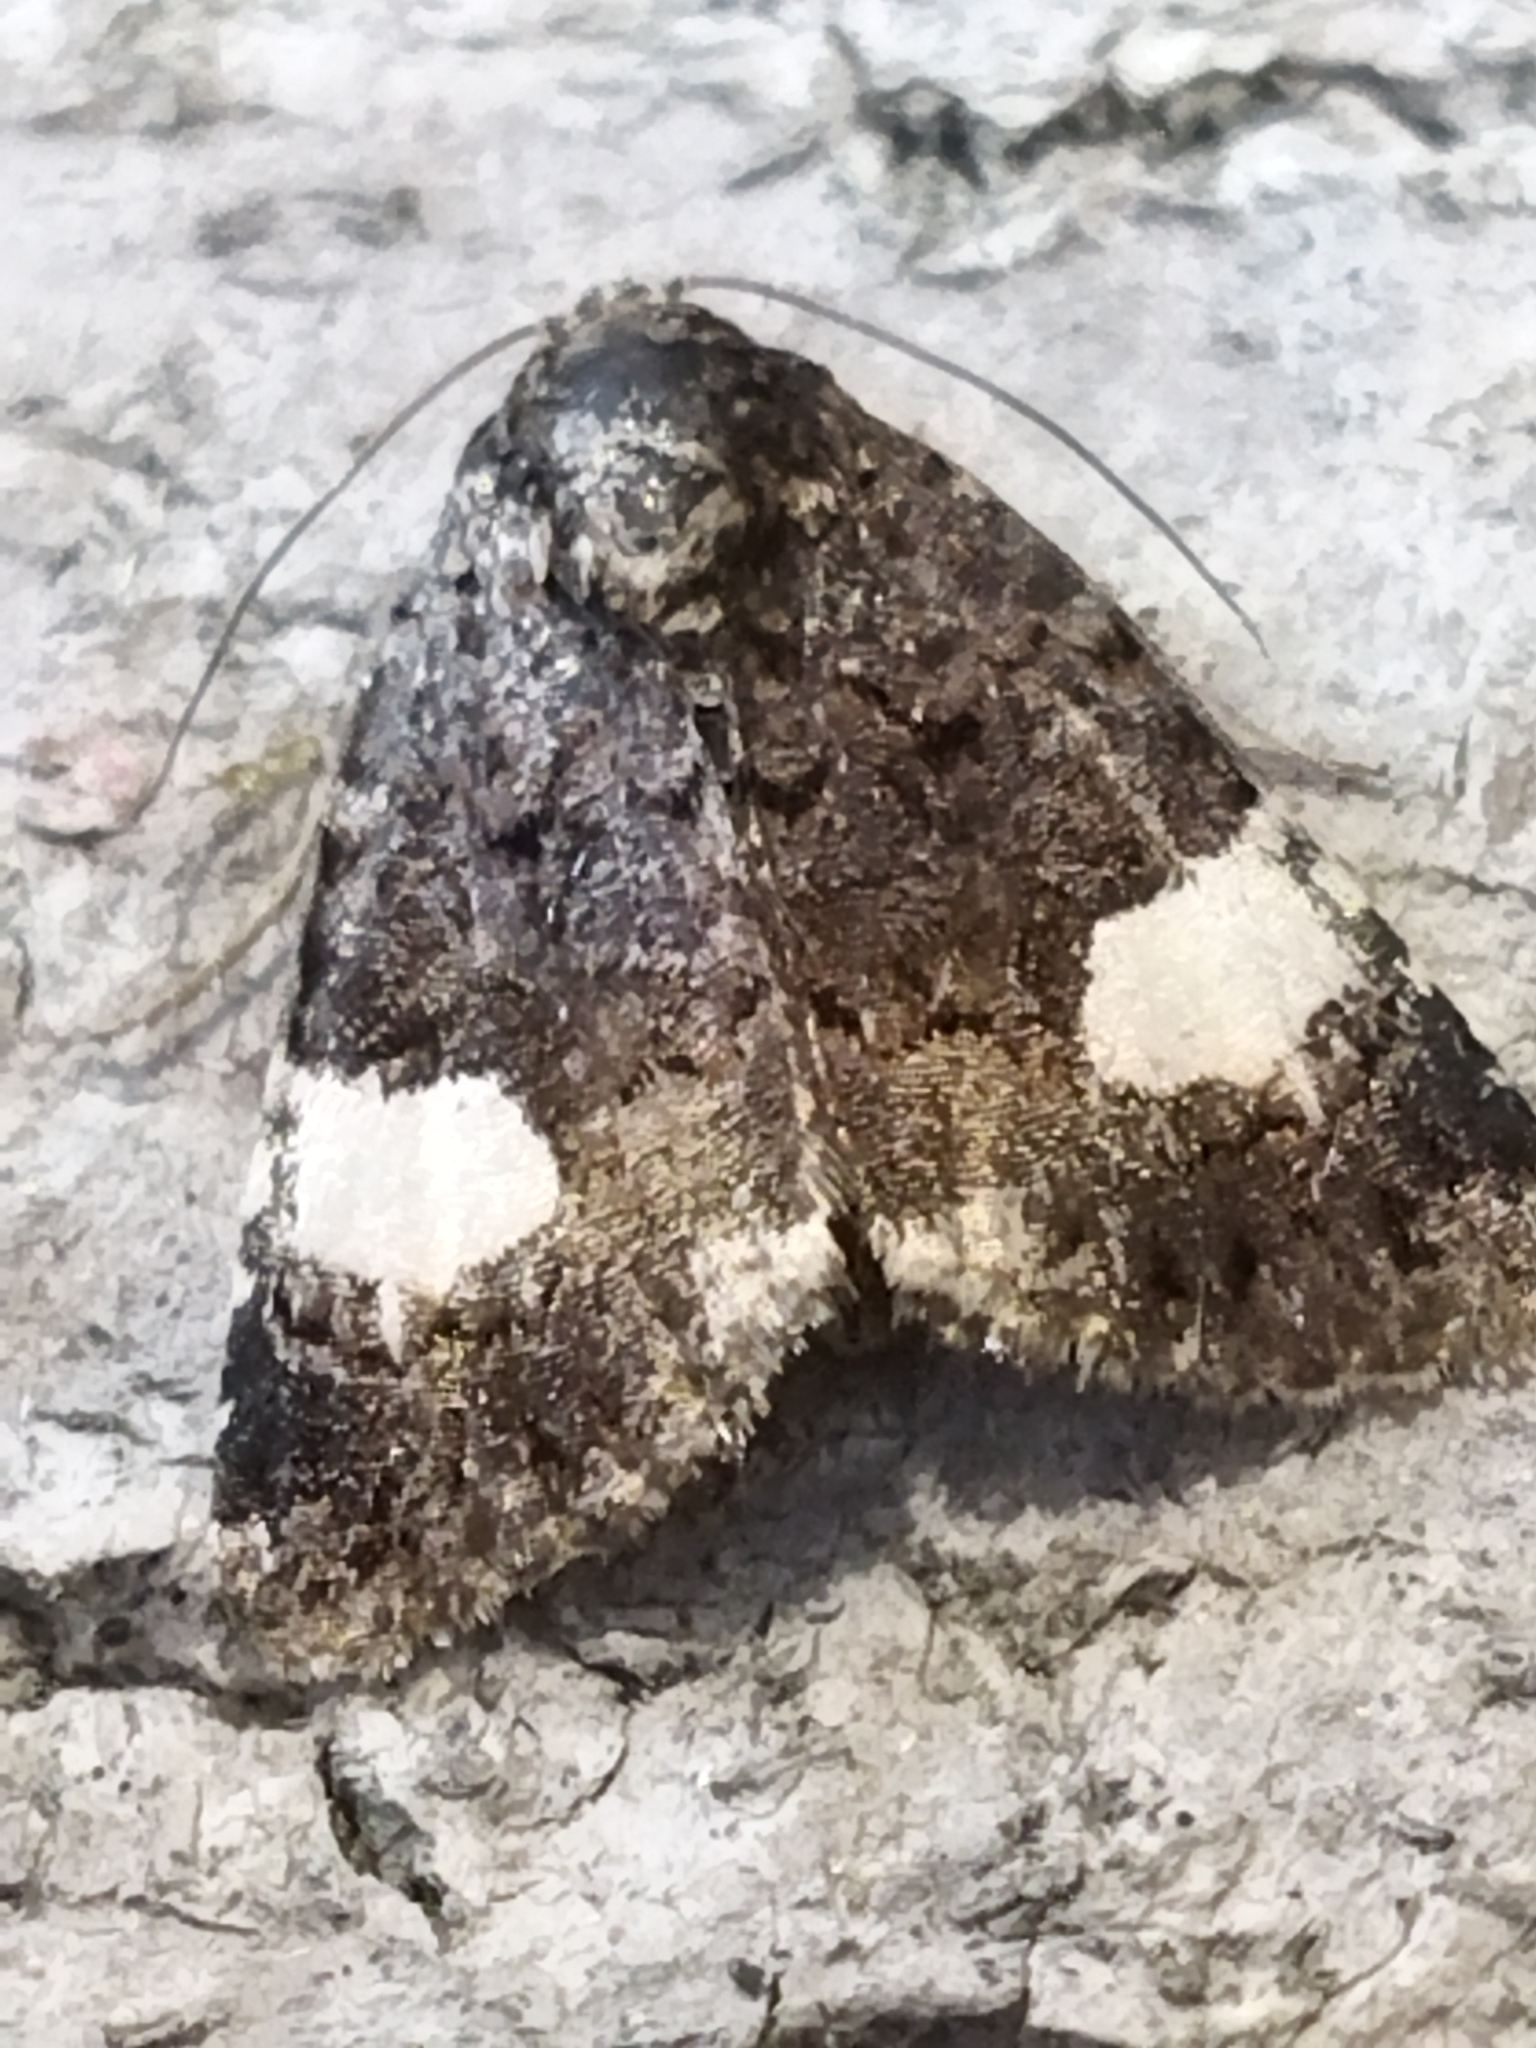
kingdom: Animalia
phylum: Arthropoda
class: Insecta
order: Lepidoptera
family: Erebidae
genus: Tyta
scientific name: Tyta luctuosa
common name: Four-spotted
